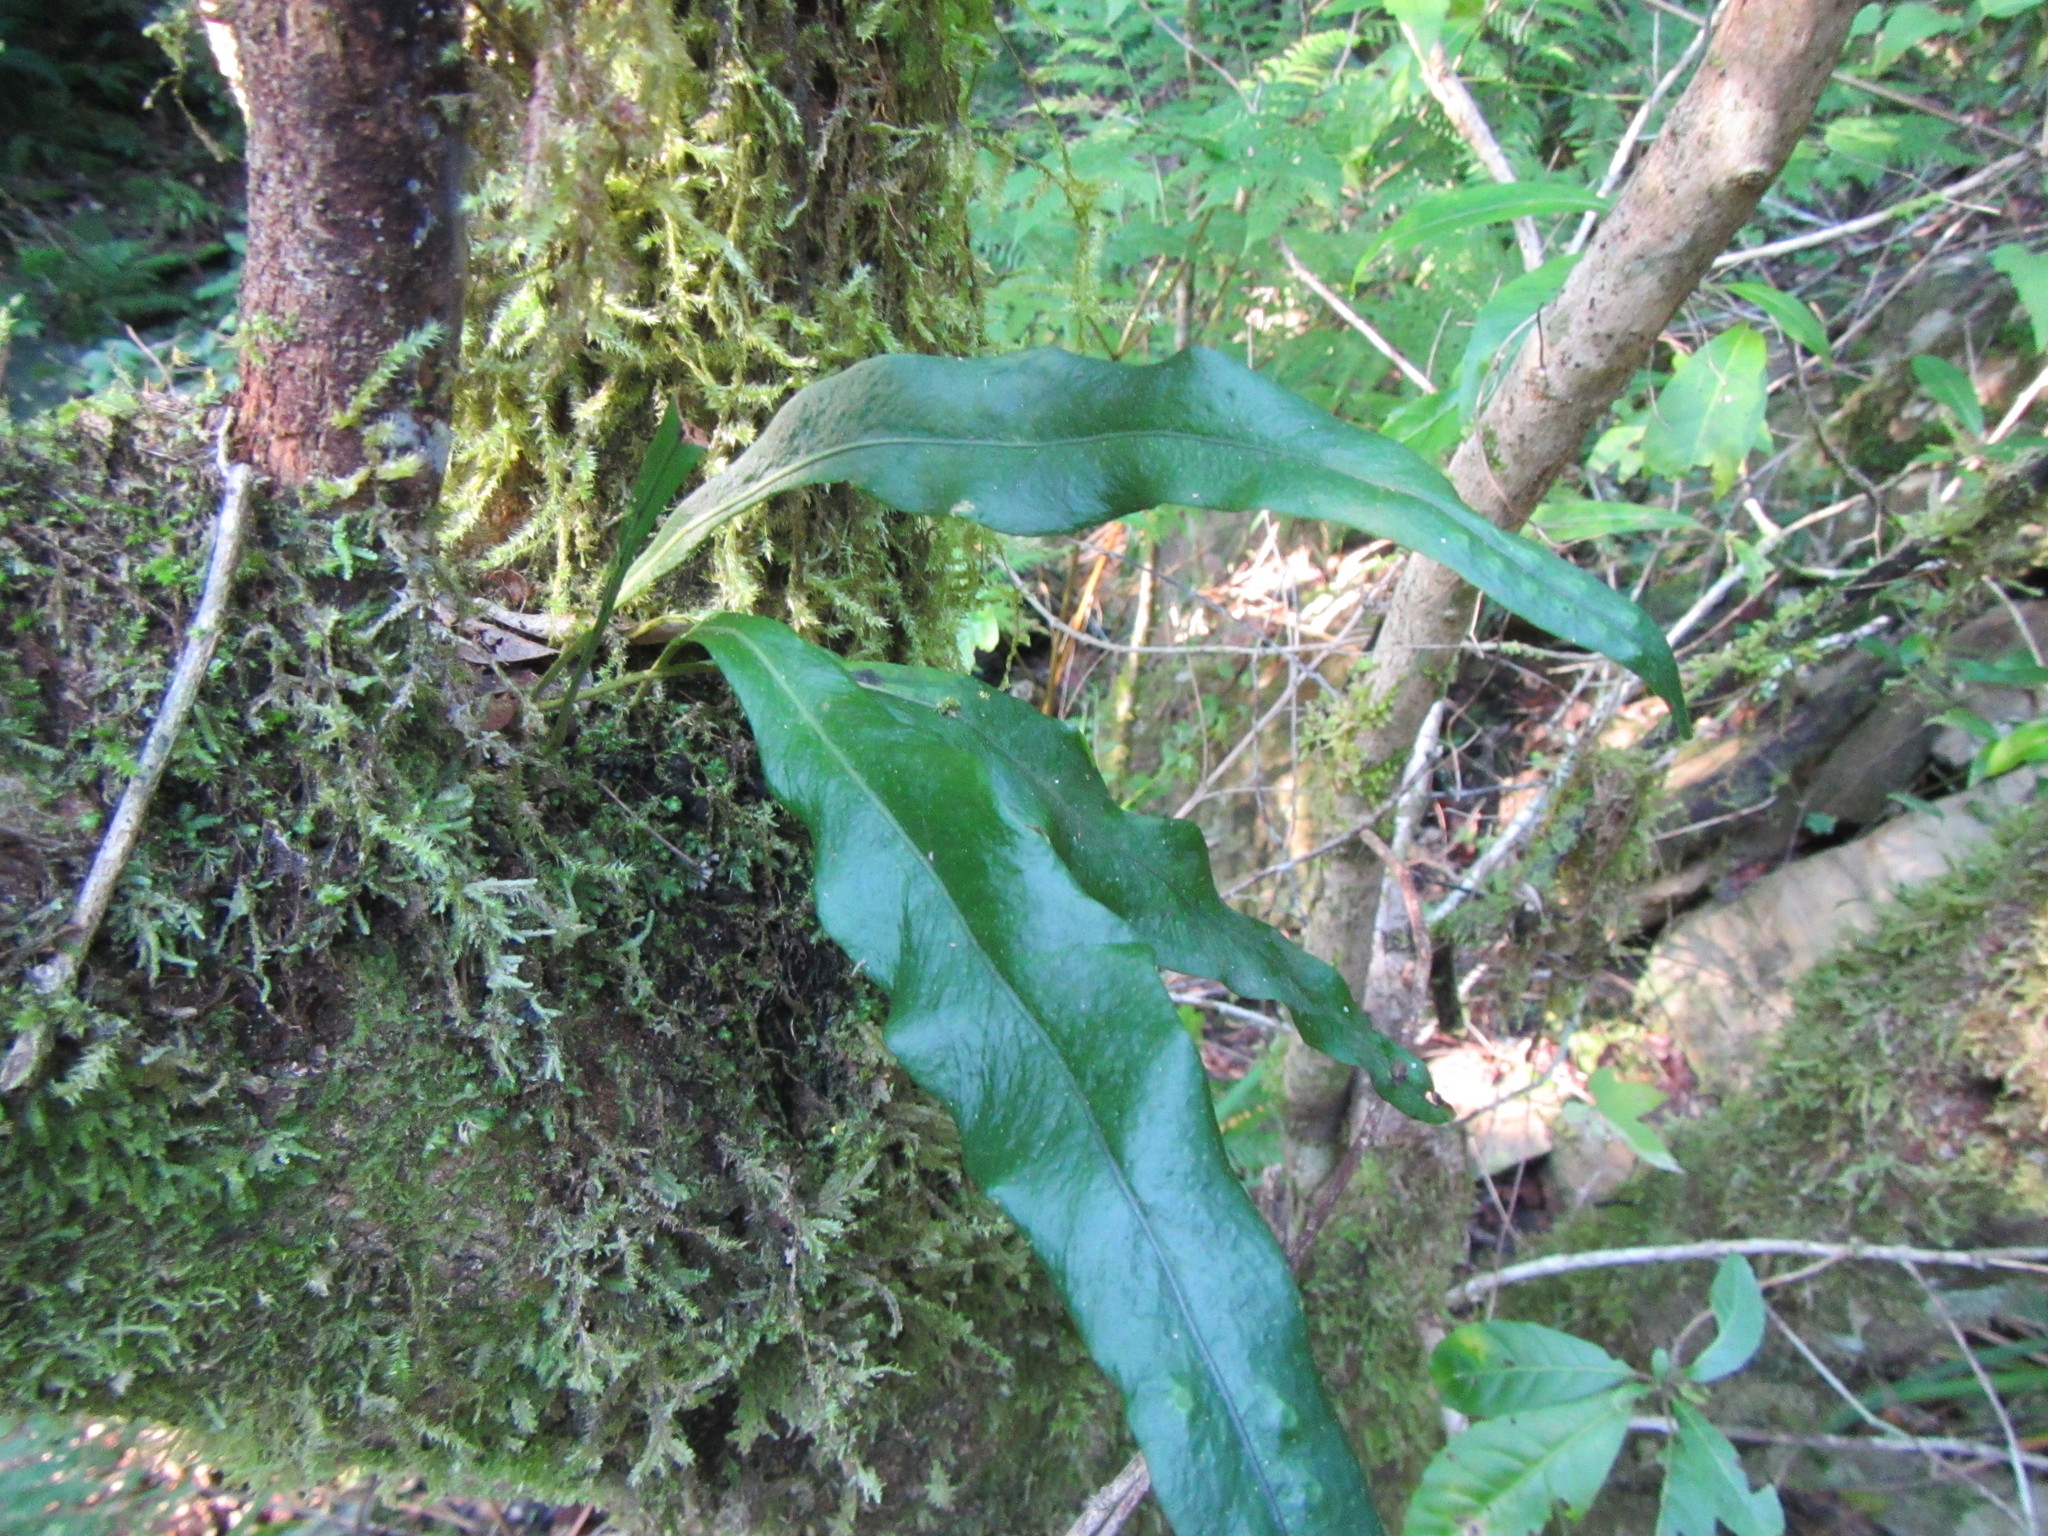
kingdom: Plantae
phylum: Tracheophyta
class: Polypodiopsida
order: Polypodiales
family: Polypodiaceae
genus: Lepisorus
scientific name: Lepisorus schraderi
